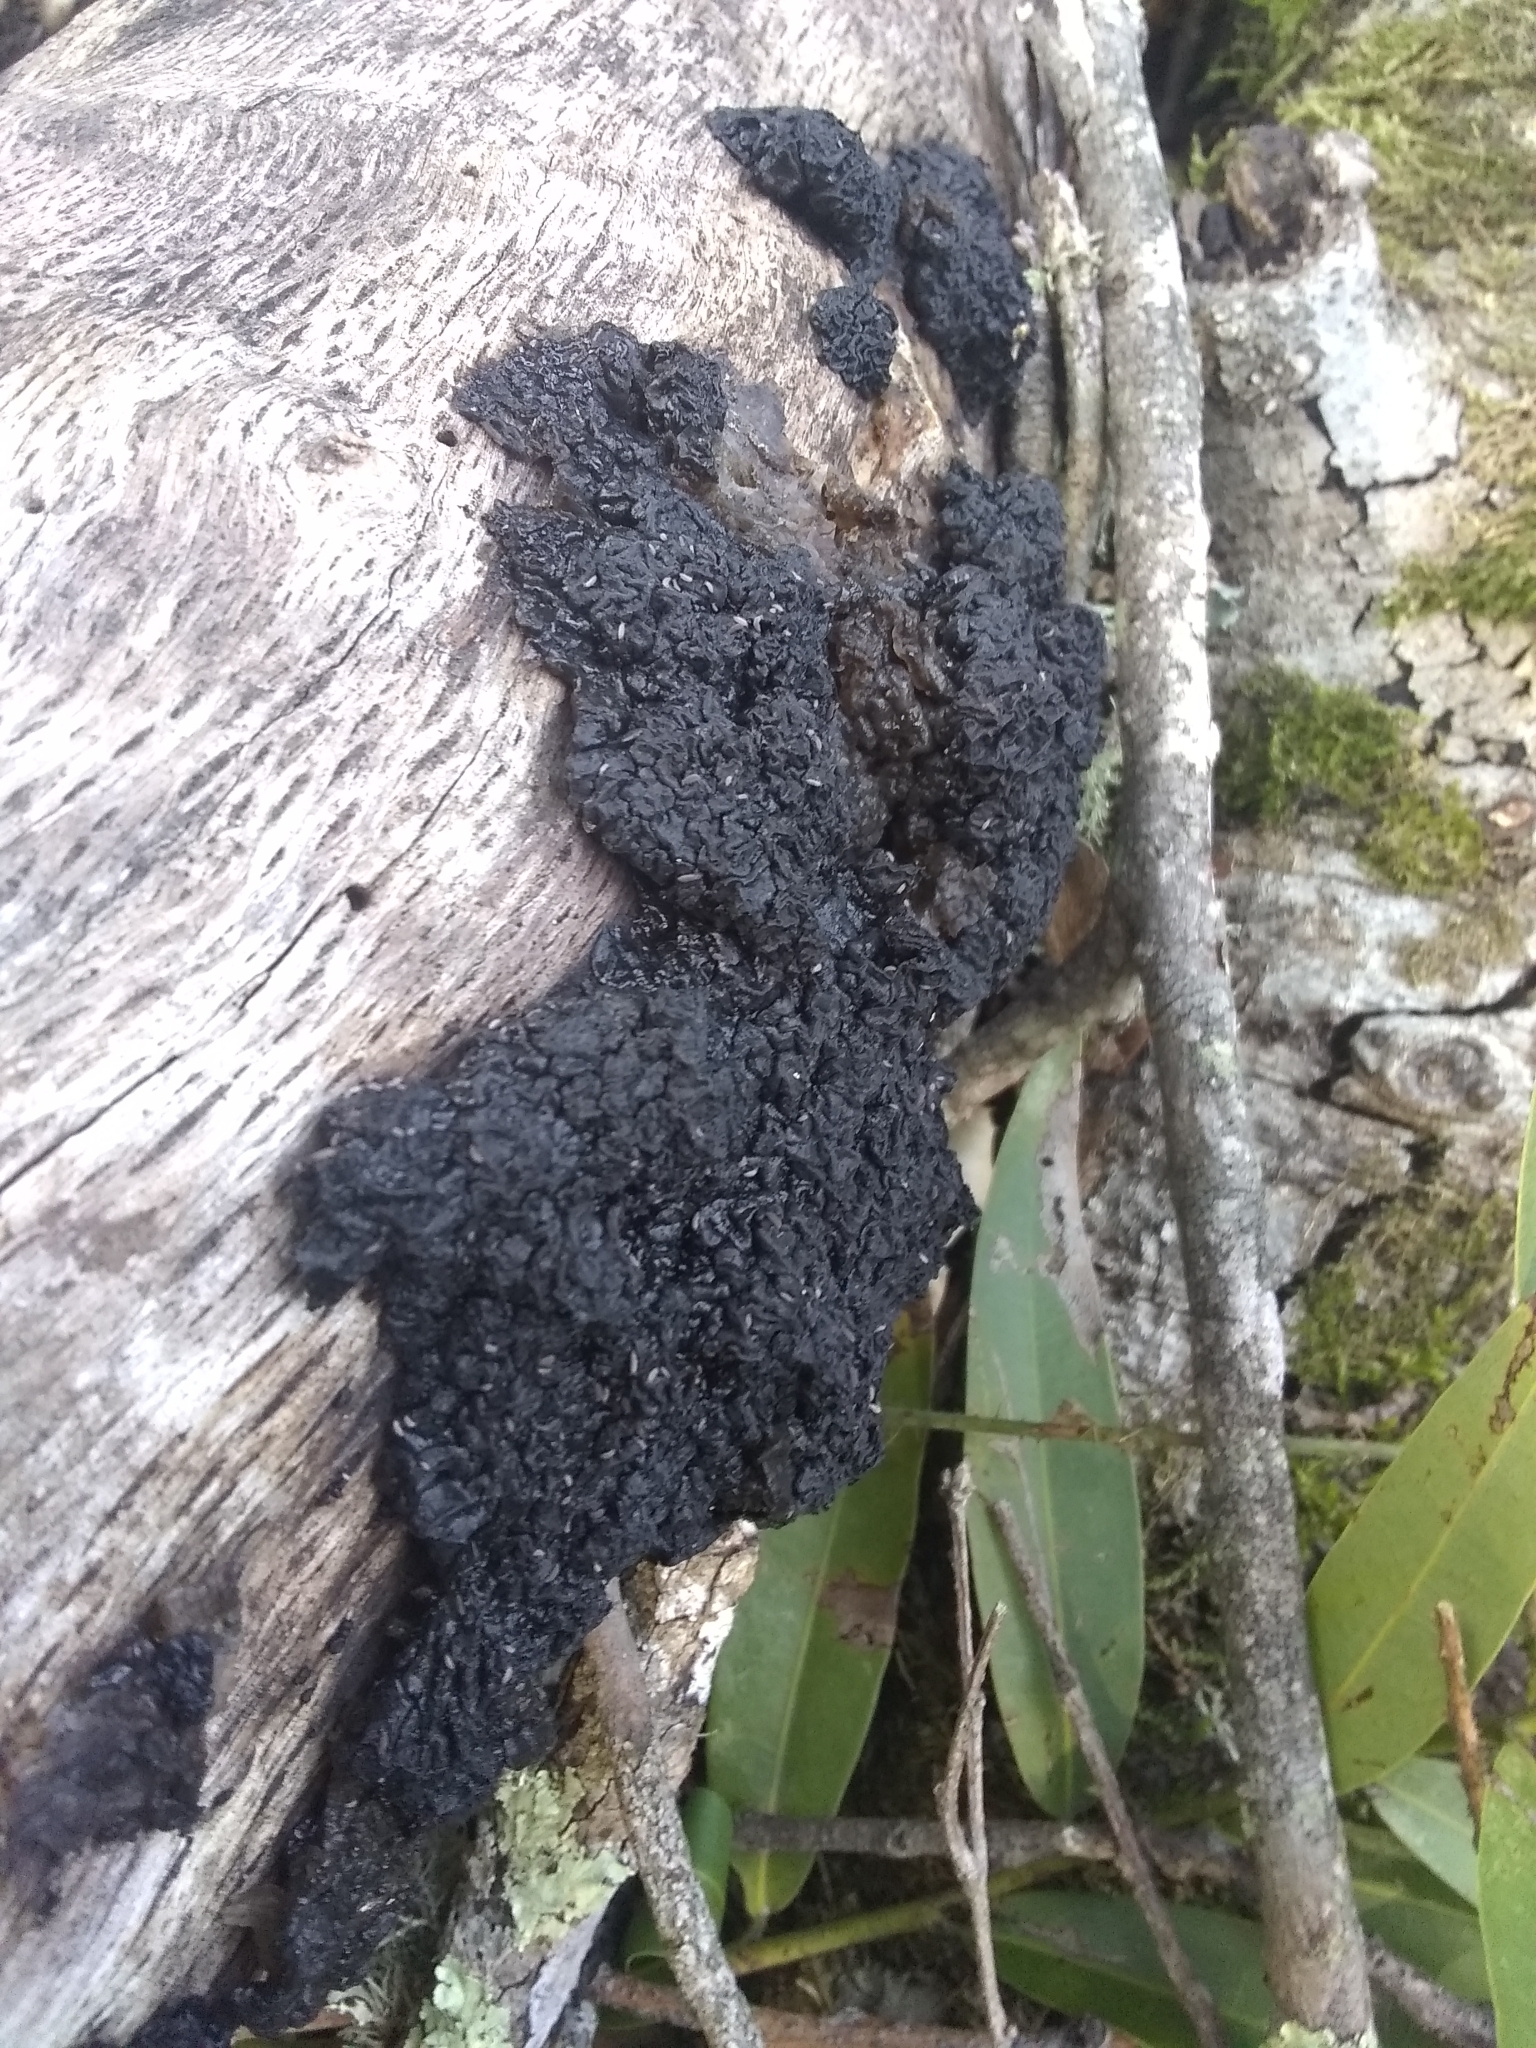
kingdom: Fungi
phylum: Basidiomycota
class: Agaricomycetes
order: Auriculariales
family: Auriculariaceae
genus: Exidia
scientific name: Exidia glandulosa
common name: Witches' butter
